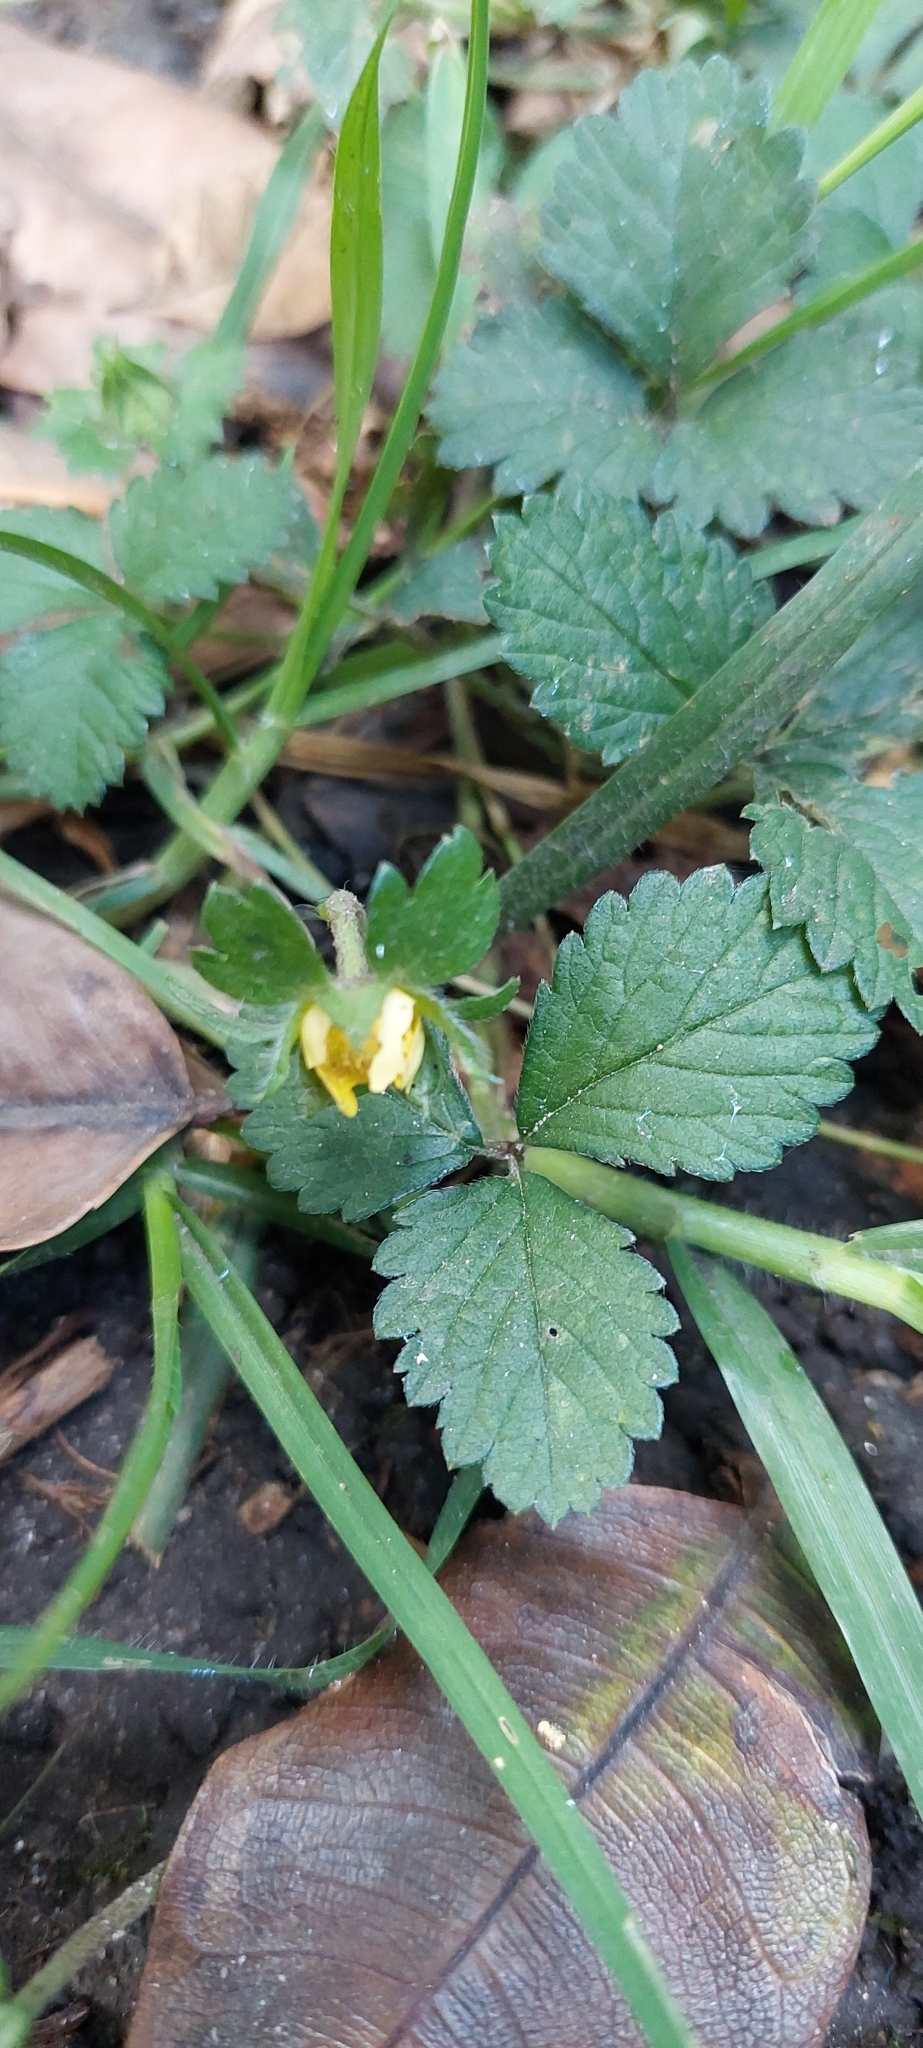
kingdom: Plantae
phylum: Tracheophyta
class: Magnoliopsida
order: Rosales
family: Rosaceae
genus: Potentilla
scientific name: Potentilla indica
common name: Yellow-flowered strawberry
